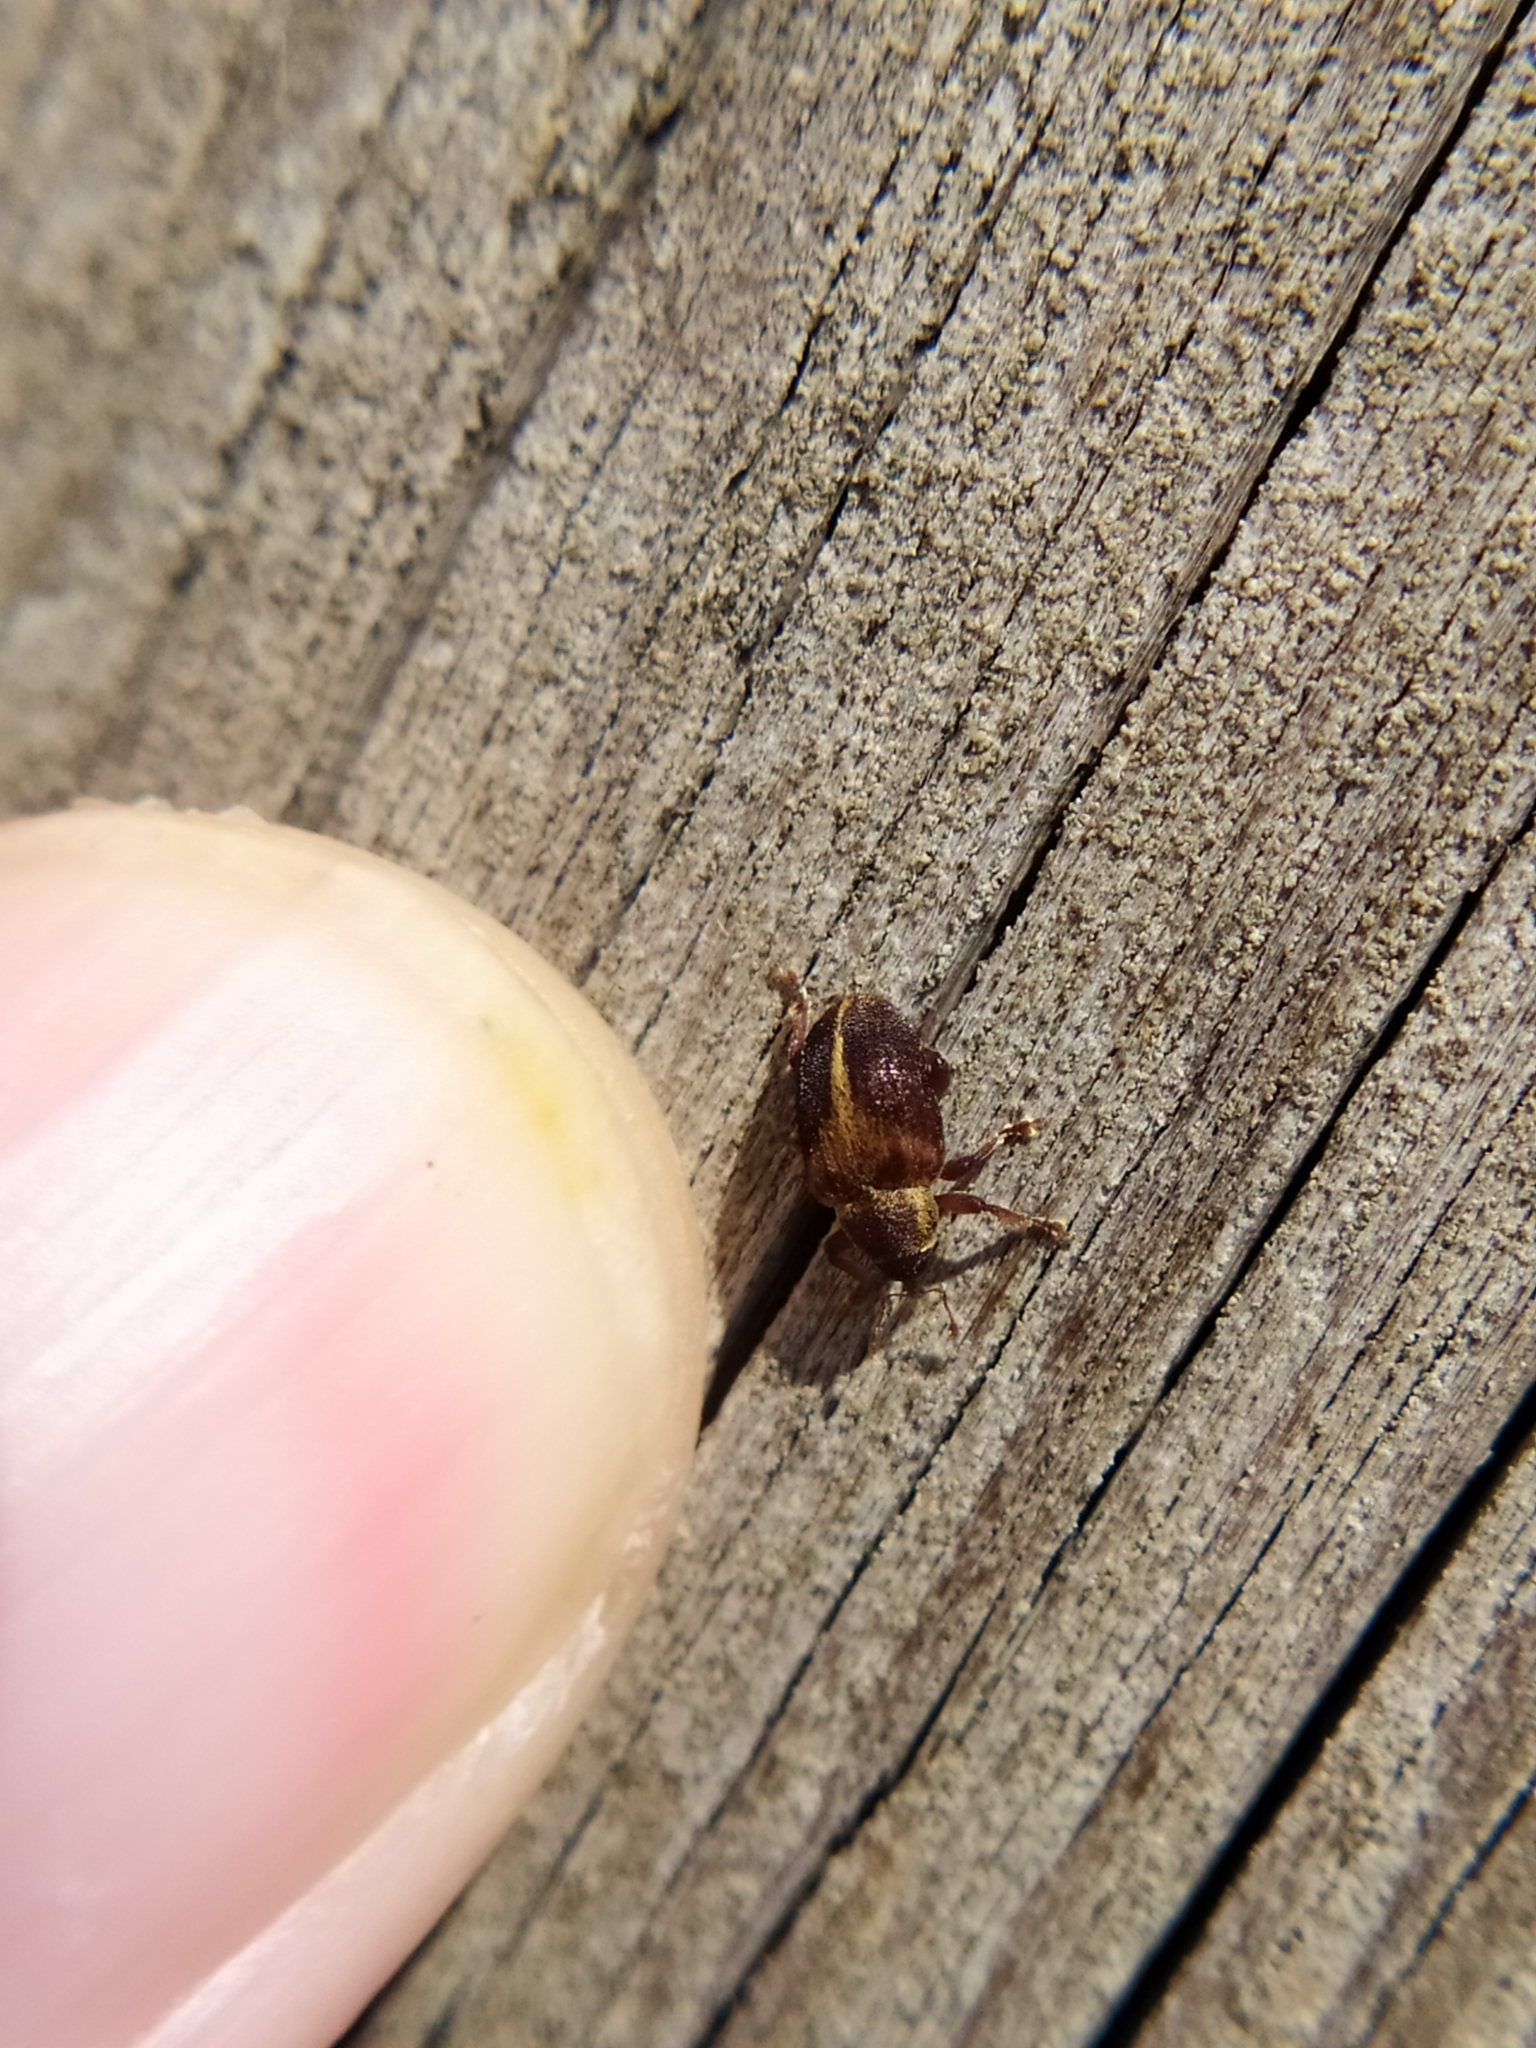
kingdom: Animalia
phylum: Arthropoda
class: Insecta
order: Coleoptera
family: Curculionidae
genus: Lignyodes
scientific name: Lignyodes enucleator
